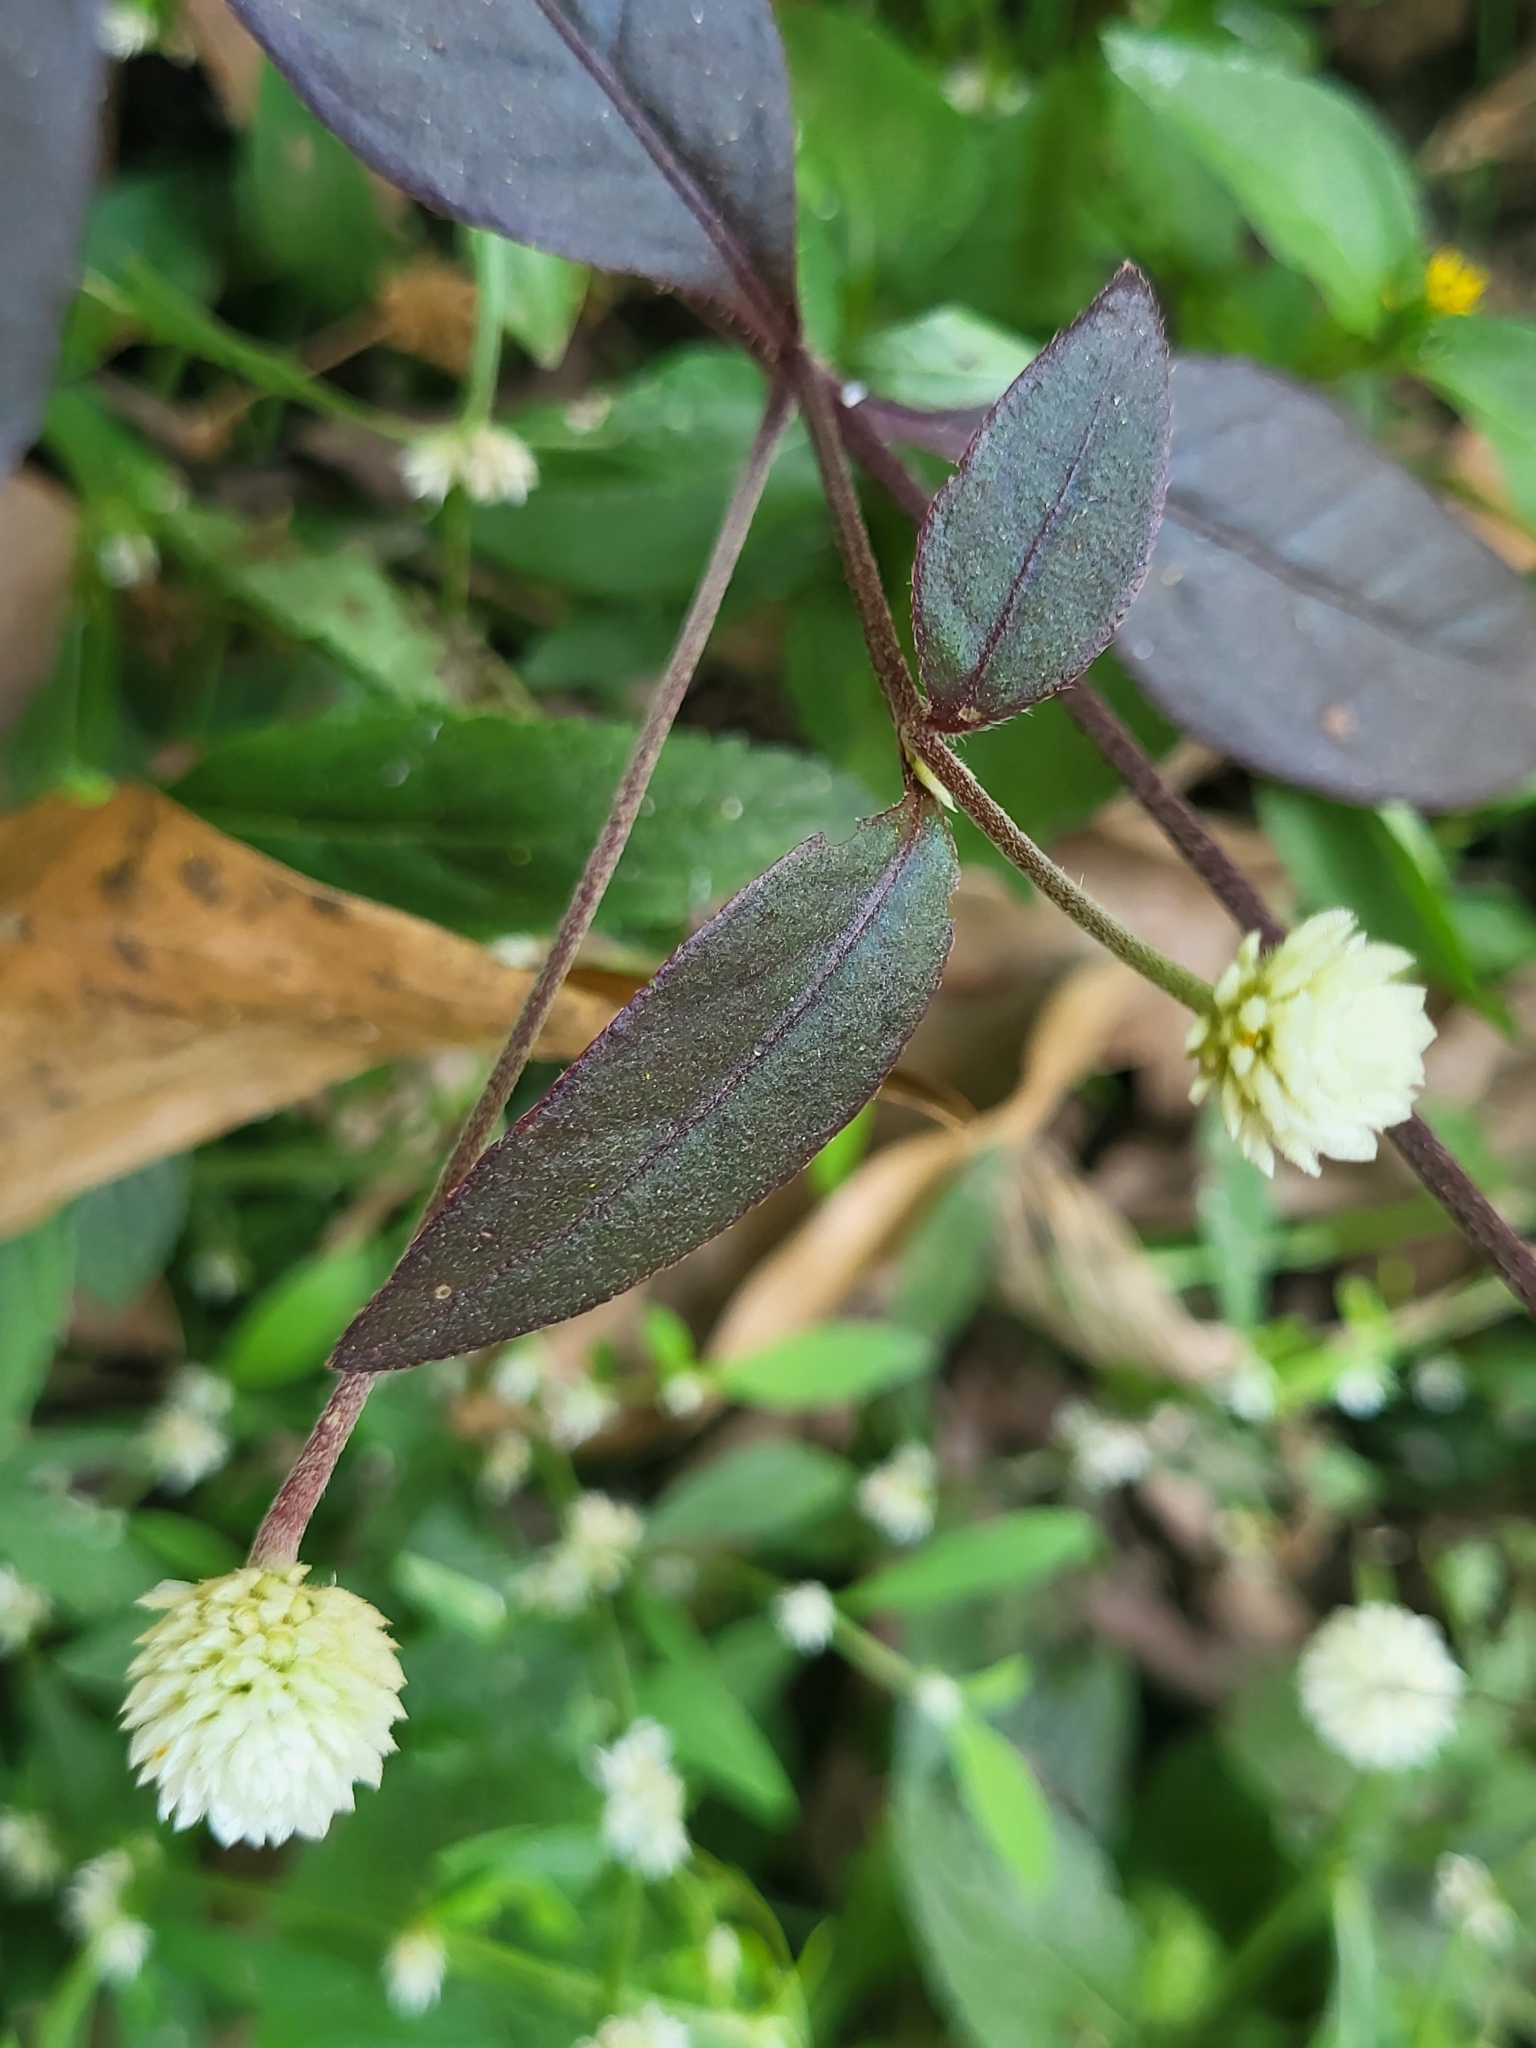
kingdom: Plantae
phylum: Tracheophyta
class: Magnoliopsida
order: Caryophyllales
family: Amaranthaceae
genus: Alternanthera
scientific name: Alternanthera brasiliana
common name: Brazilian joyweed
